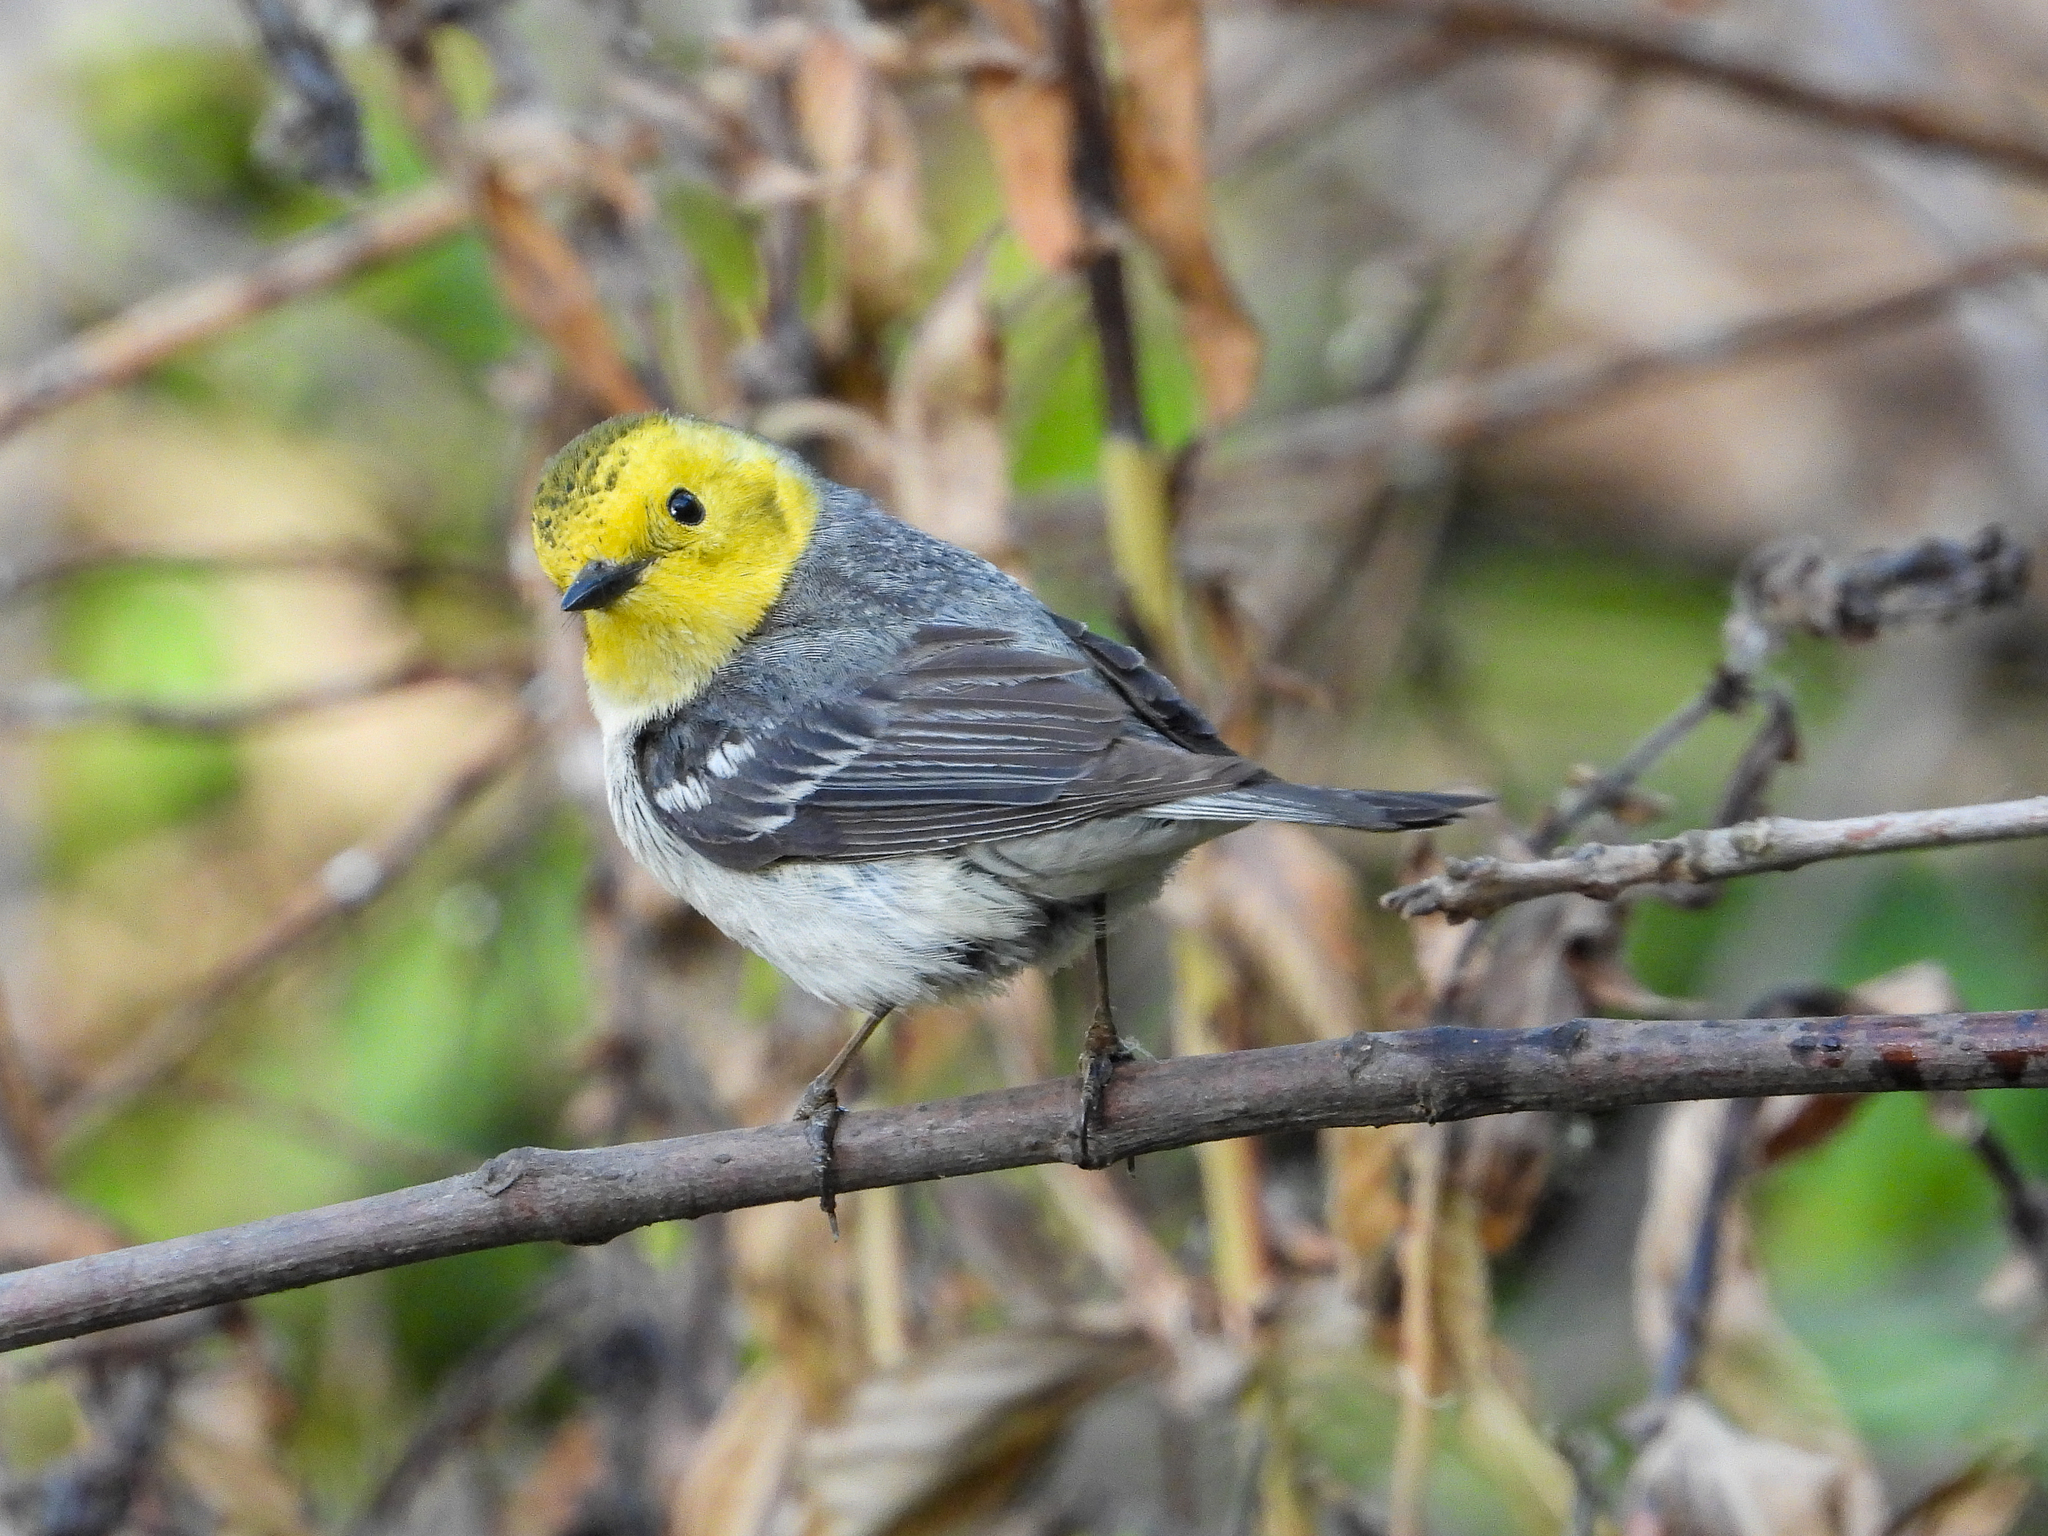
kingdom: Animalia
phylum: Chordata
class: Aves
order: Passeriformes
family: Parulidae
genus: Setophaga
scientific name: Setophaga occidentalis
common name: Hermit warbler
